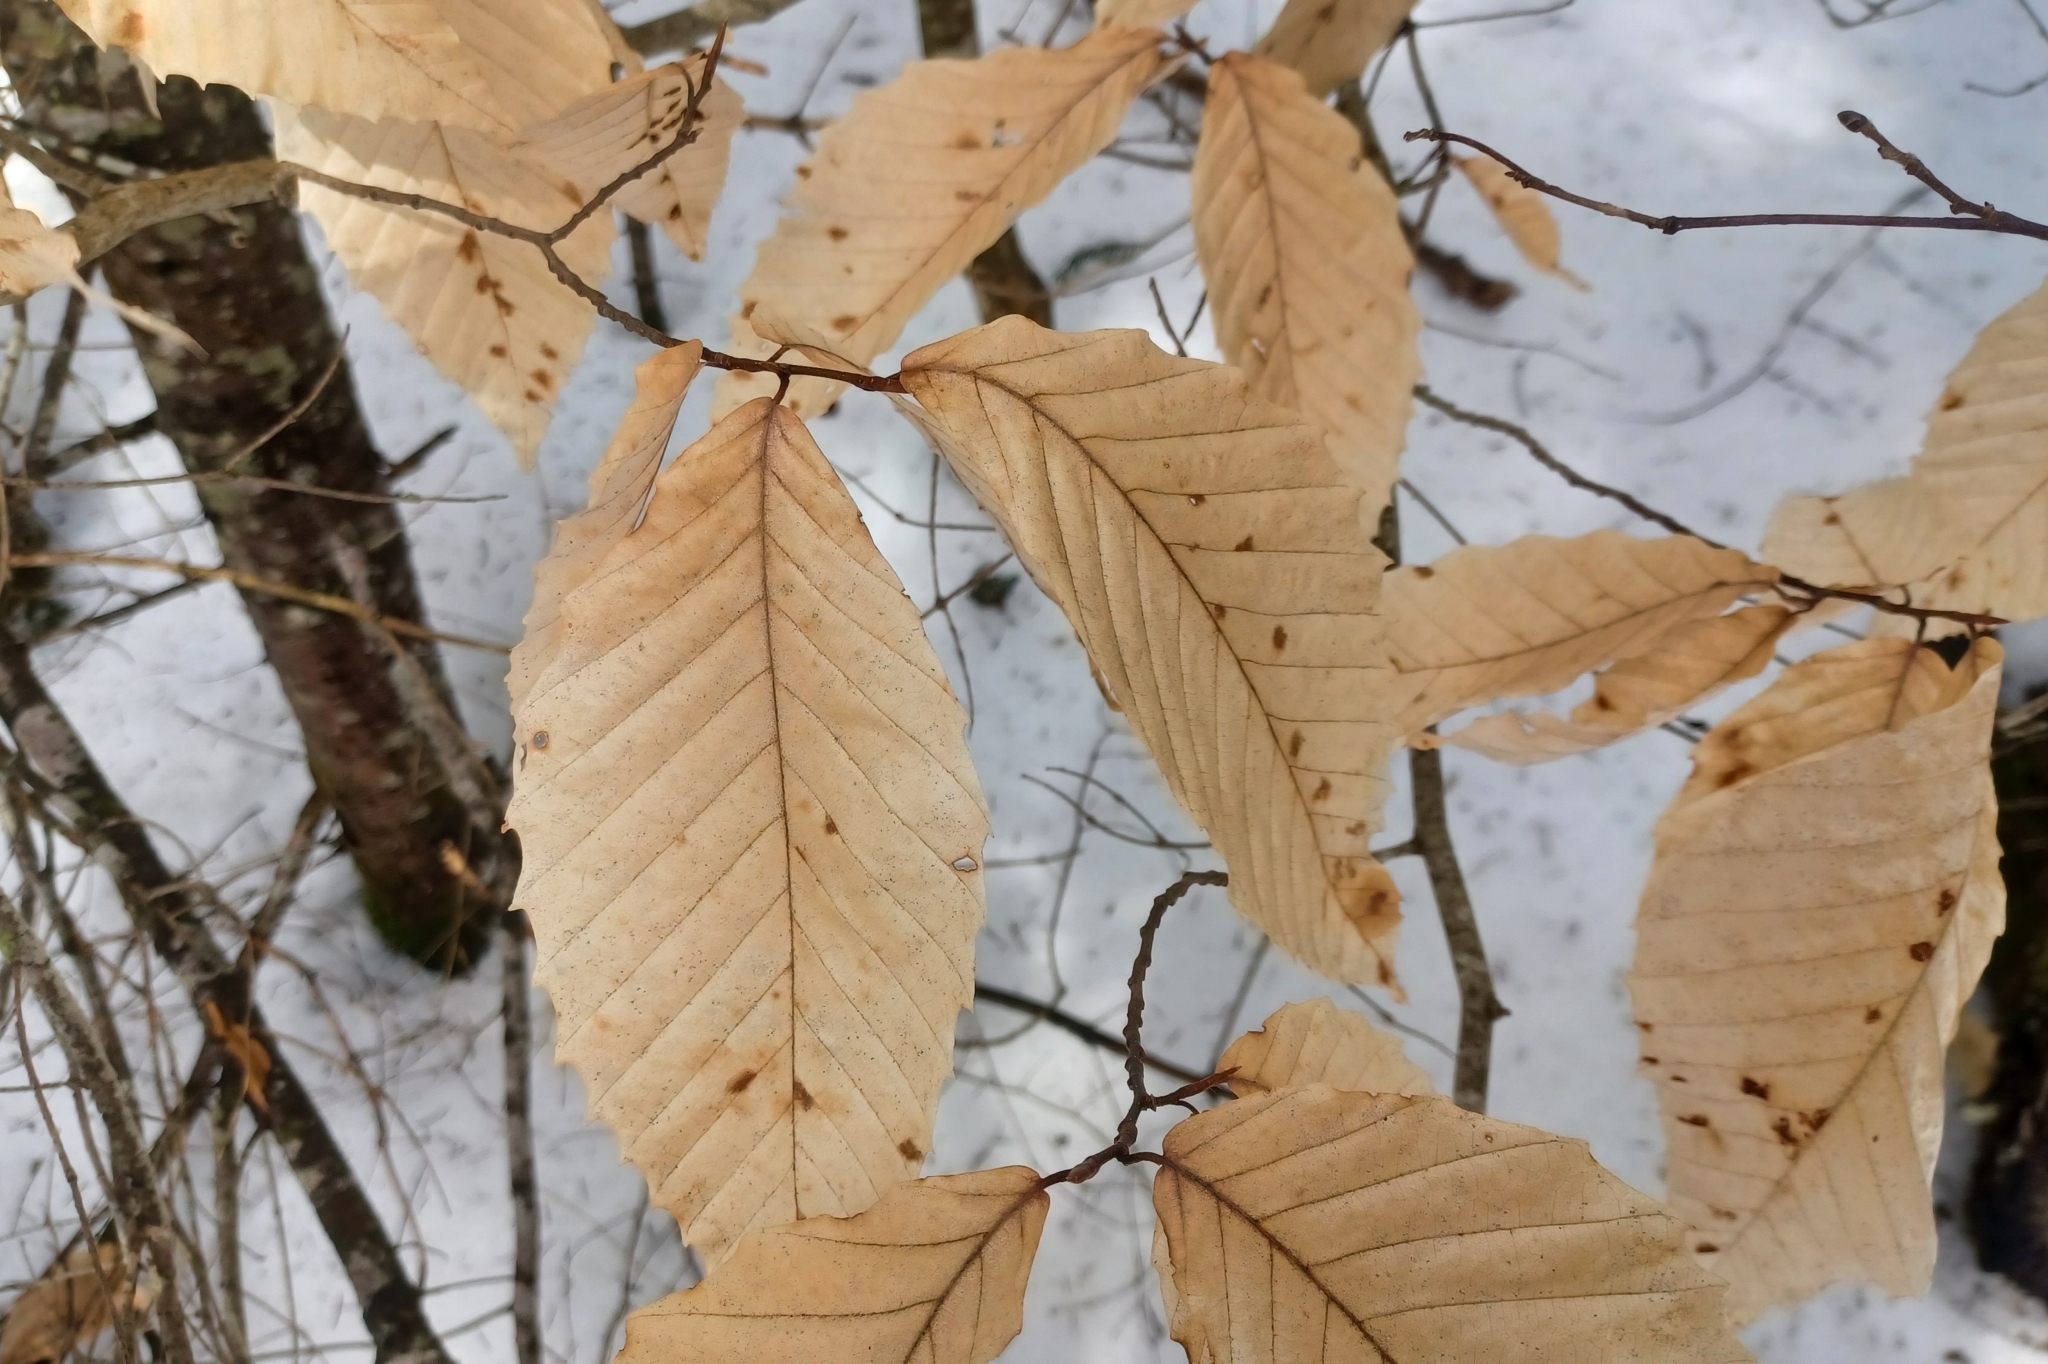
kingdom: Animalia
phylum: Arthropoda
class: Arachnida
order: Trombidiformes
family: Eriophyidae
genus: Acalitus
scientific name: Acalitus
